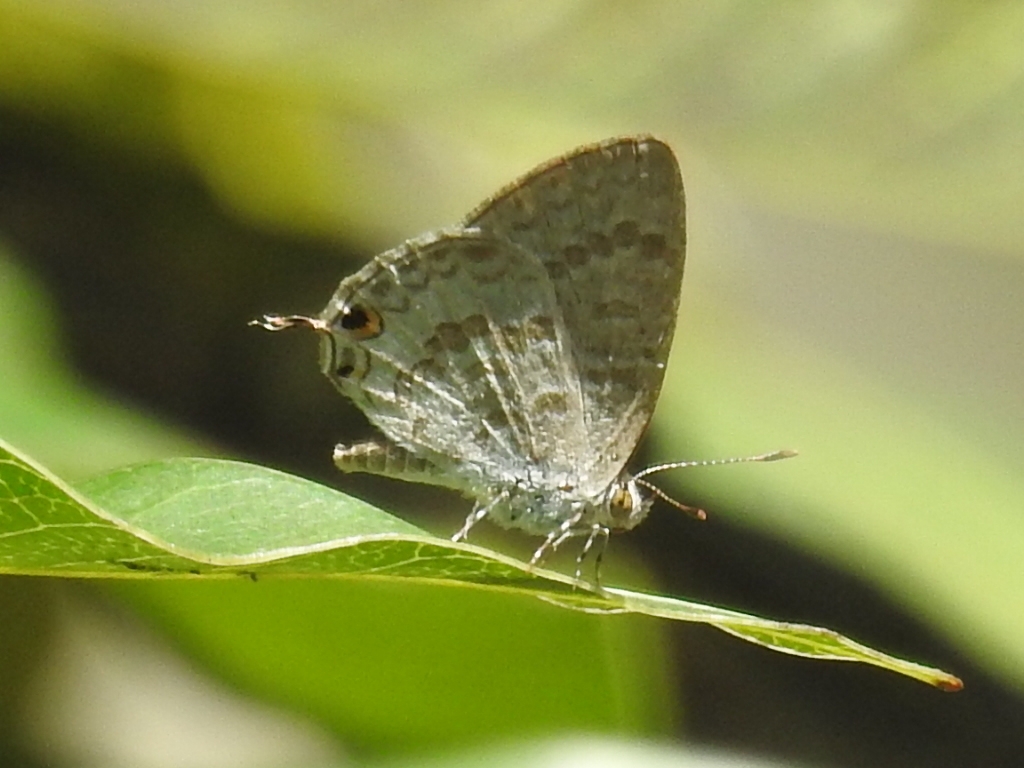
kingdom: Animalia
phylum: Arthropoda
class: Insecta
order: Lepidoptera
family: Lycaenidae
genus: Catopyrops
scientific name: Catopyrops florinda
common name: Speckled line-blue
